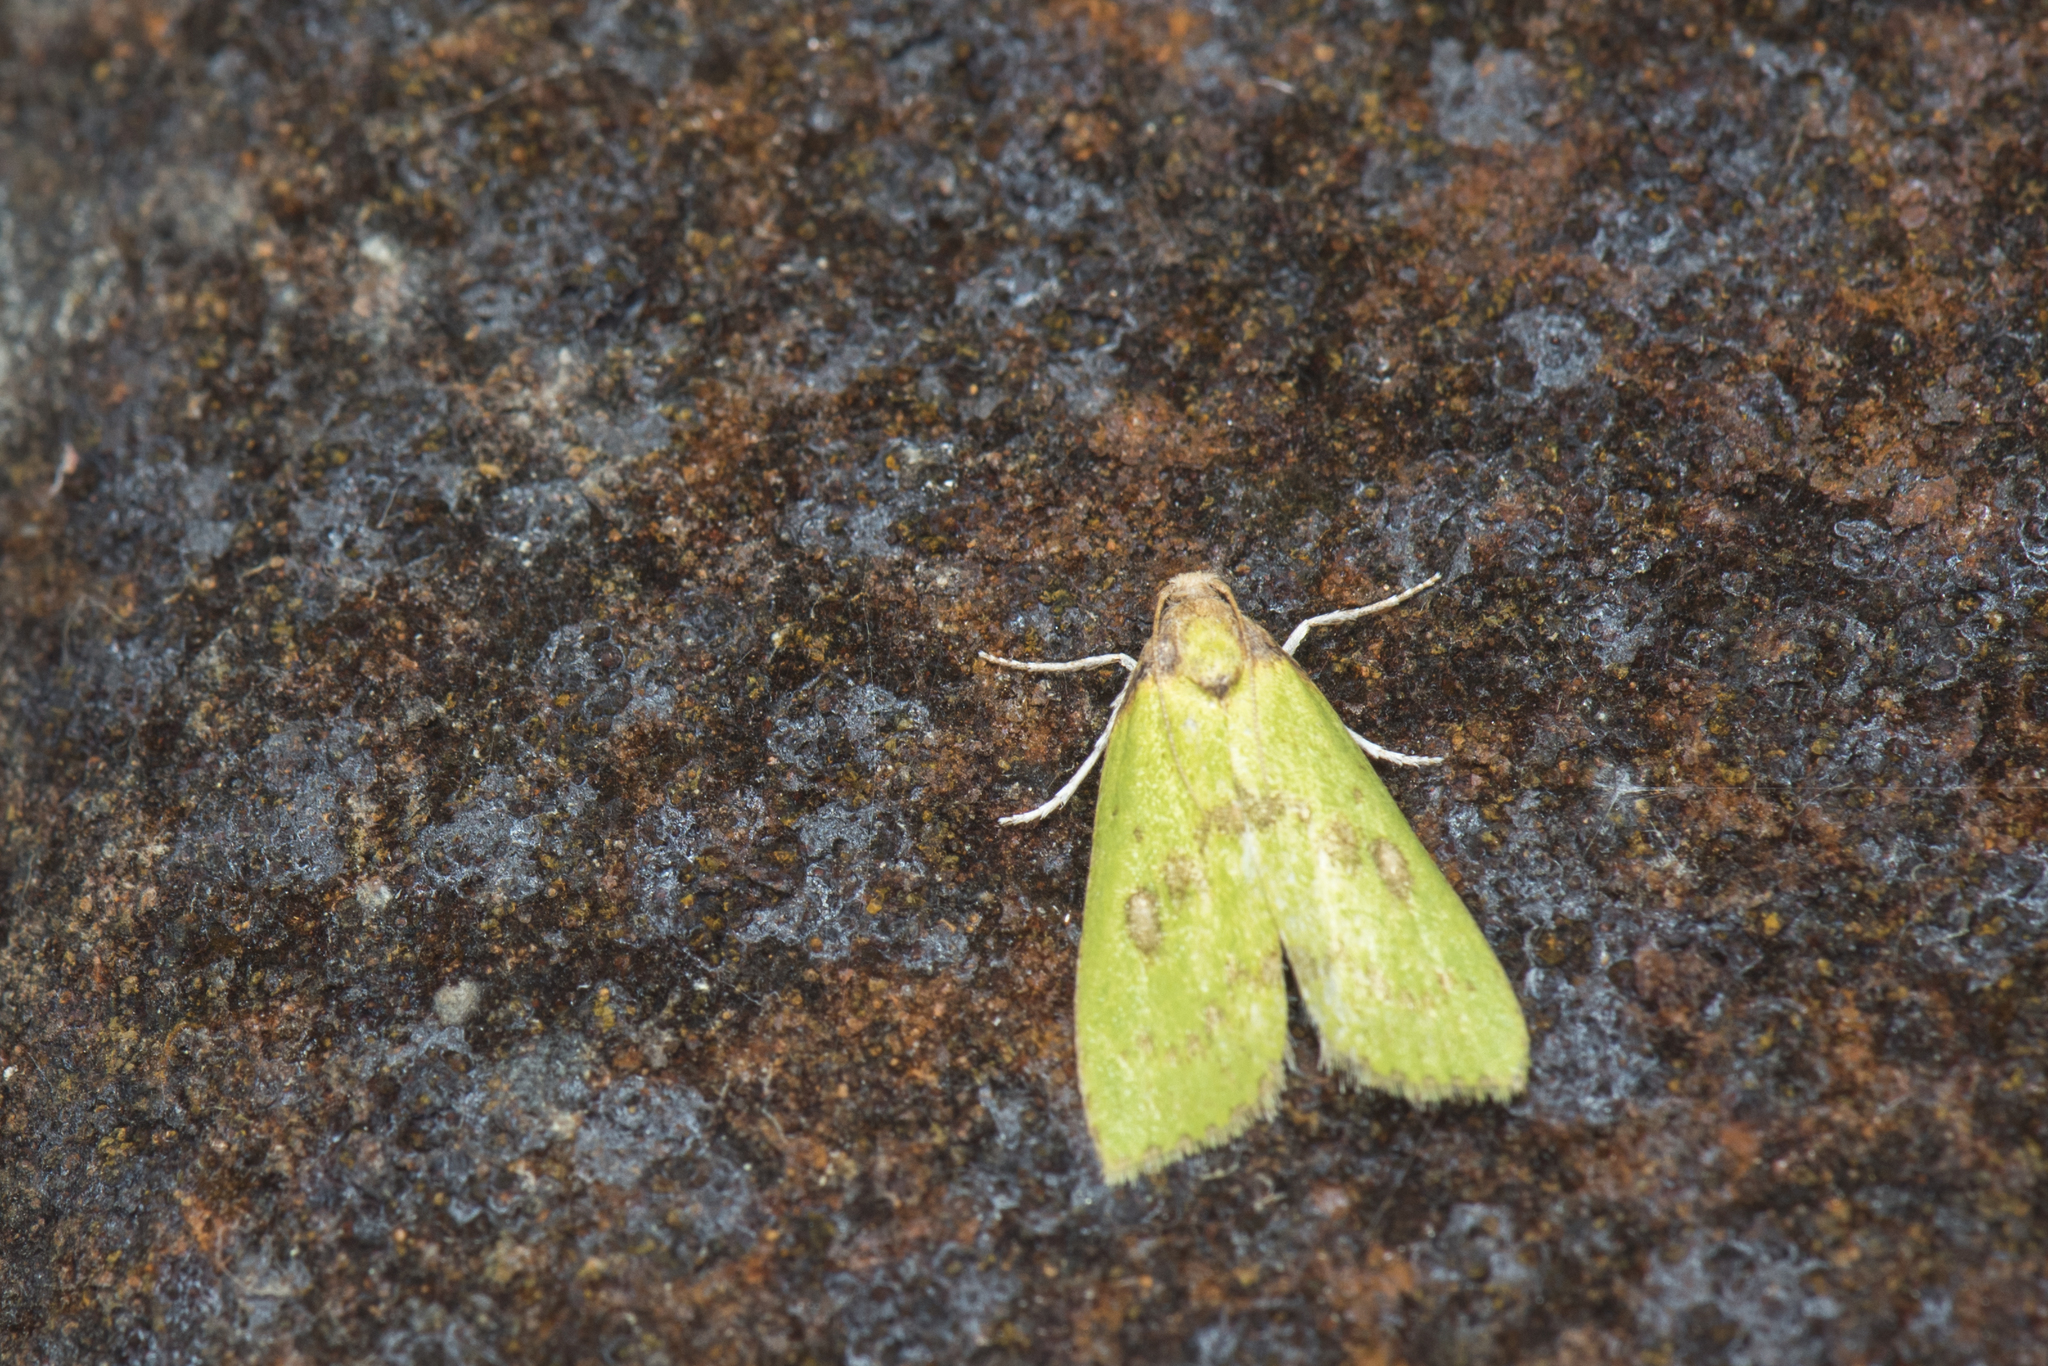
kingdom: Animalia
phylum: Arthropoda
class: Insecta
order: Lepidoptera
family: Pyralidae
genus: Doloessa
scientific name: Doloessa viridis
